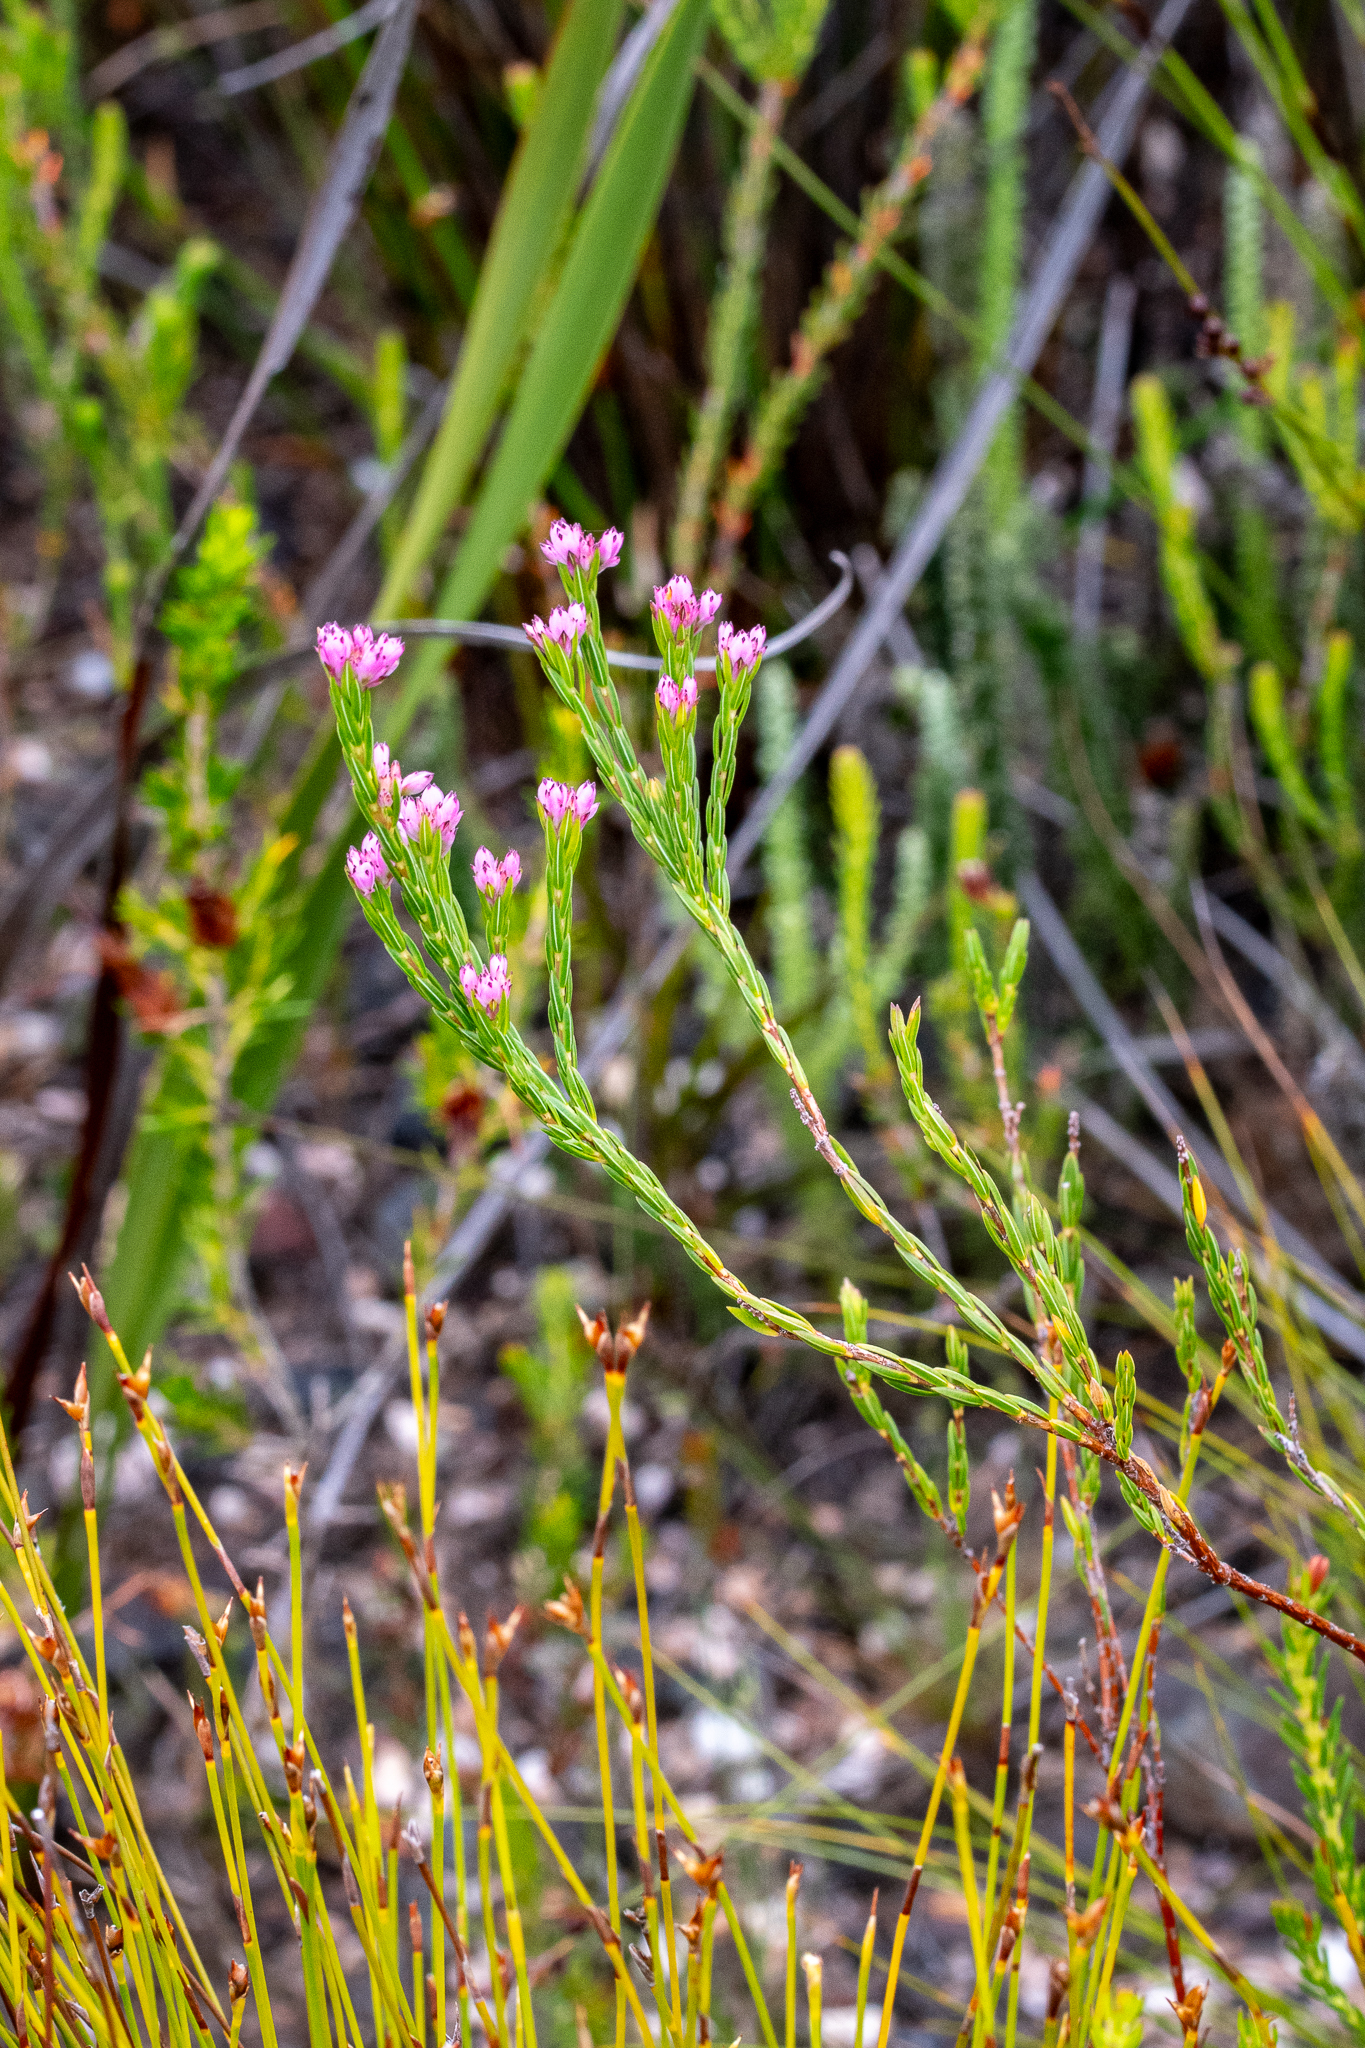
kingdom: Plantae
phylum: Tracheophyta
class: Magnoliopsida
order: Ericales
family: Ericaceae
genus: Erica
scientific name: Erica corifolia
